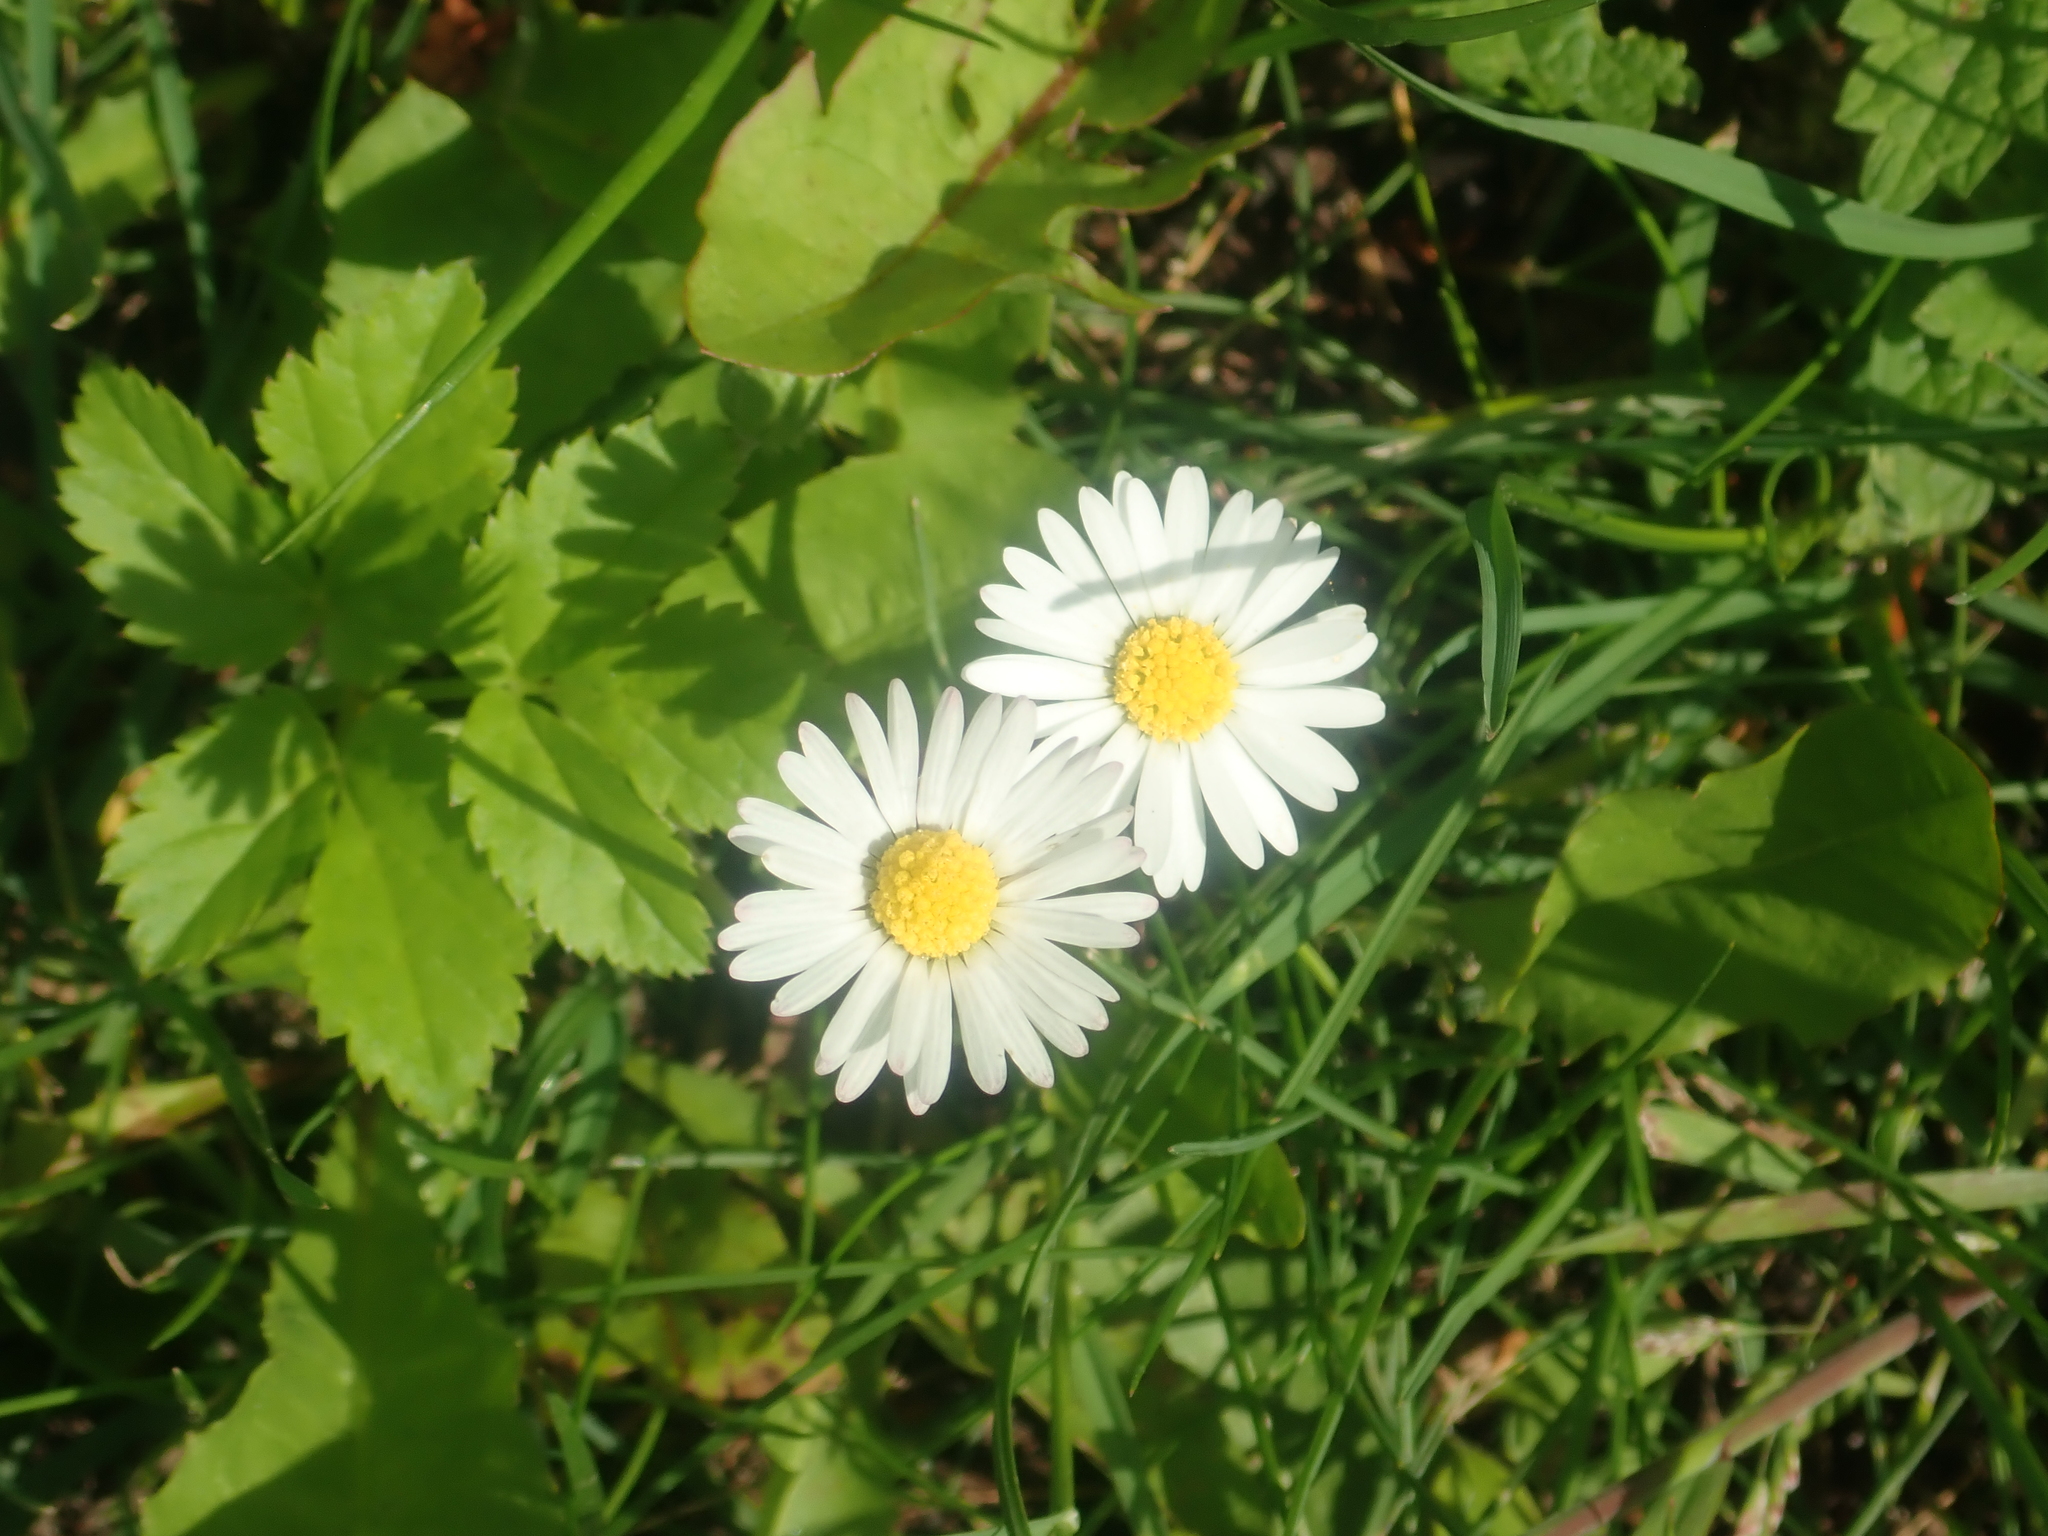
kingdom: Plantae
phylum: Tracheophyta
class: Magnoliopsida
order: Asterales
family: Asteraceae
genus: Bellis
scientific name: Bellis perennis
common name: Lawndaisy
